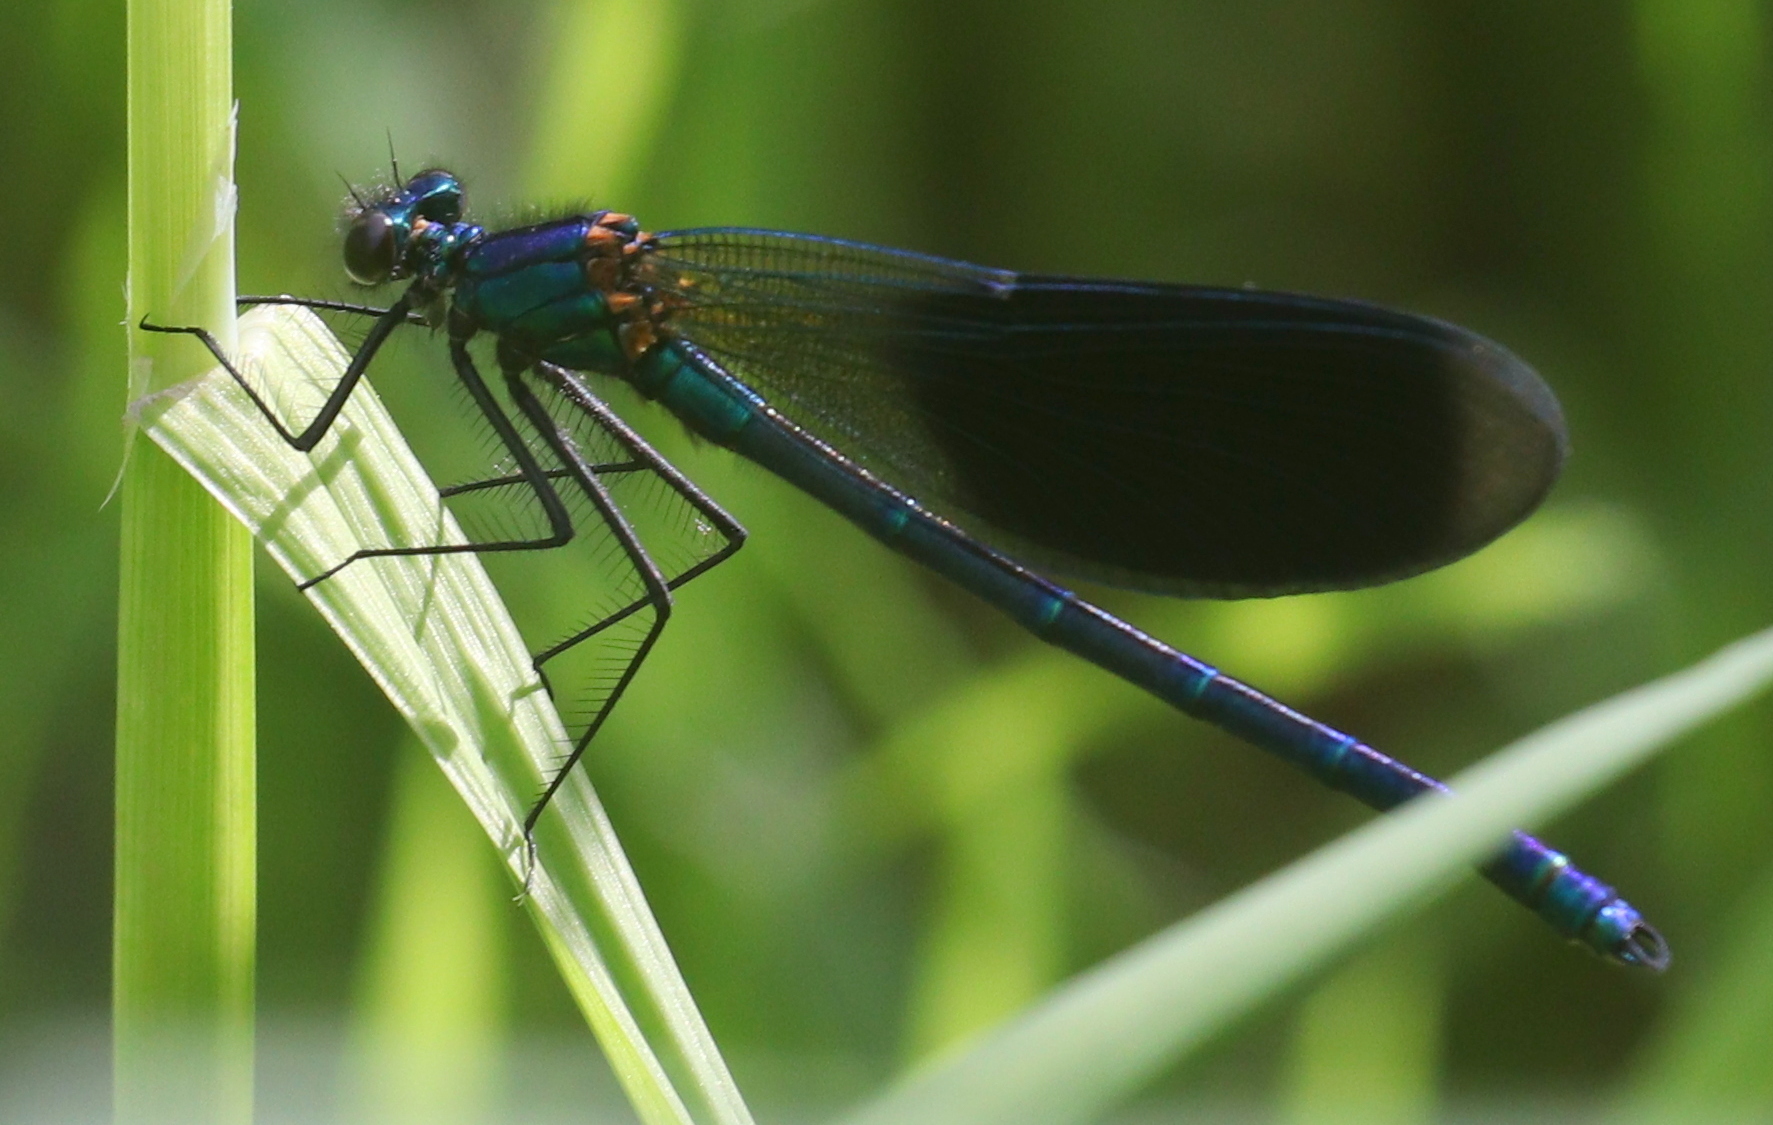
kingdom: Animalia
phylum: Arthropoda
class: Insecta
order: Odonata
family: Calopterygidae
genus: Calopteryx
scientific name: Calopteryx splendens
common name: Banded demoiselle
